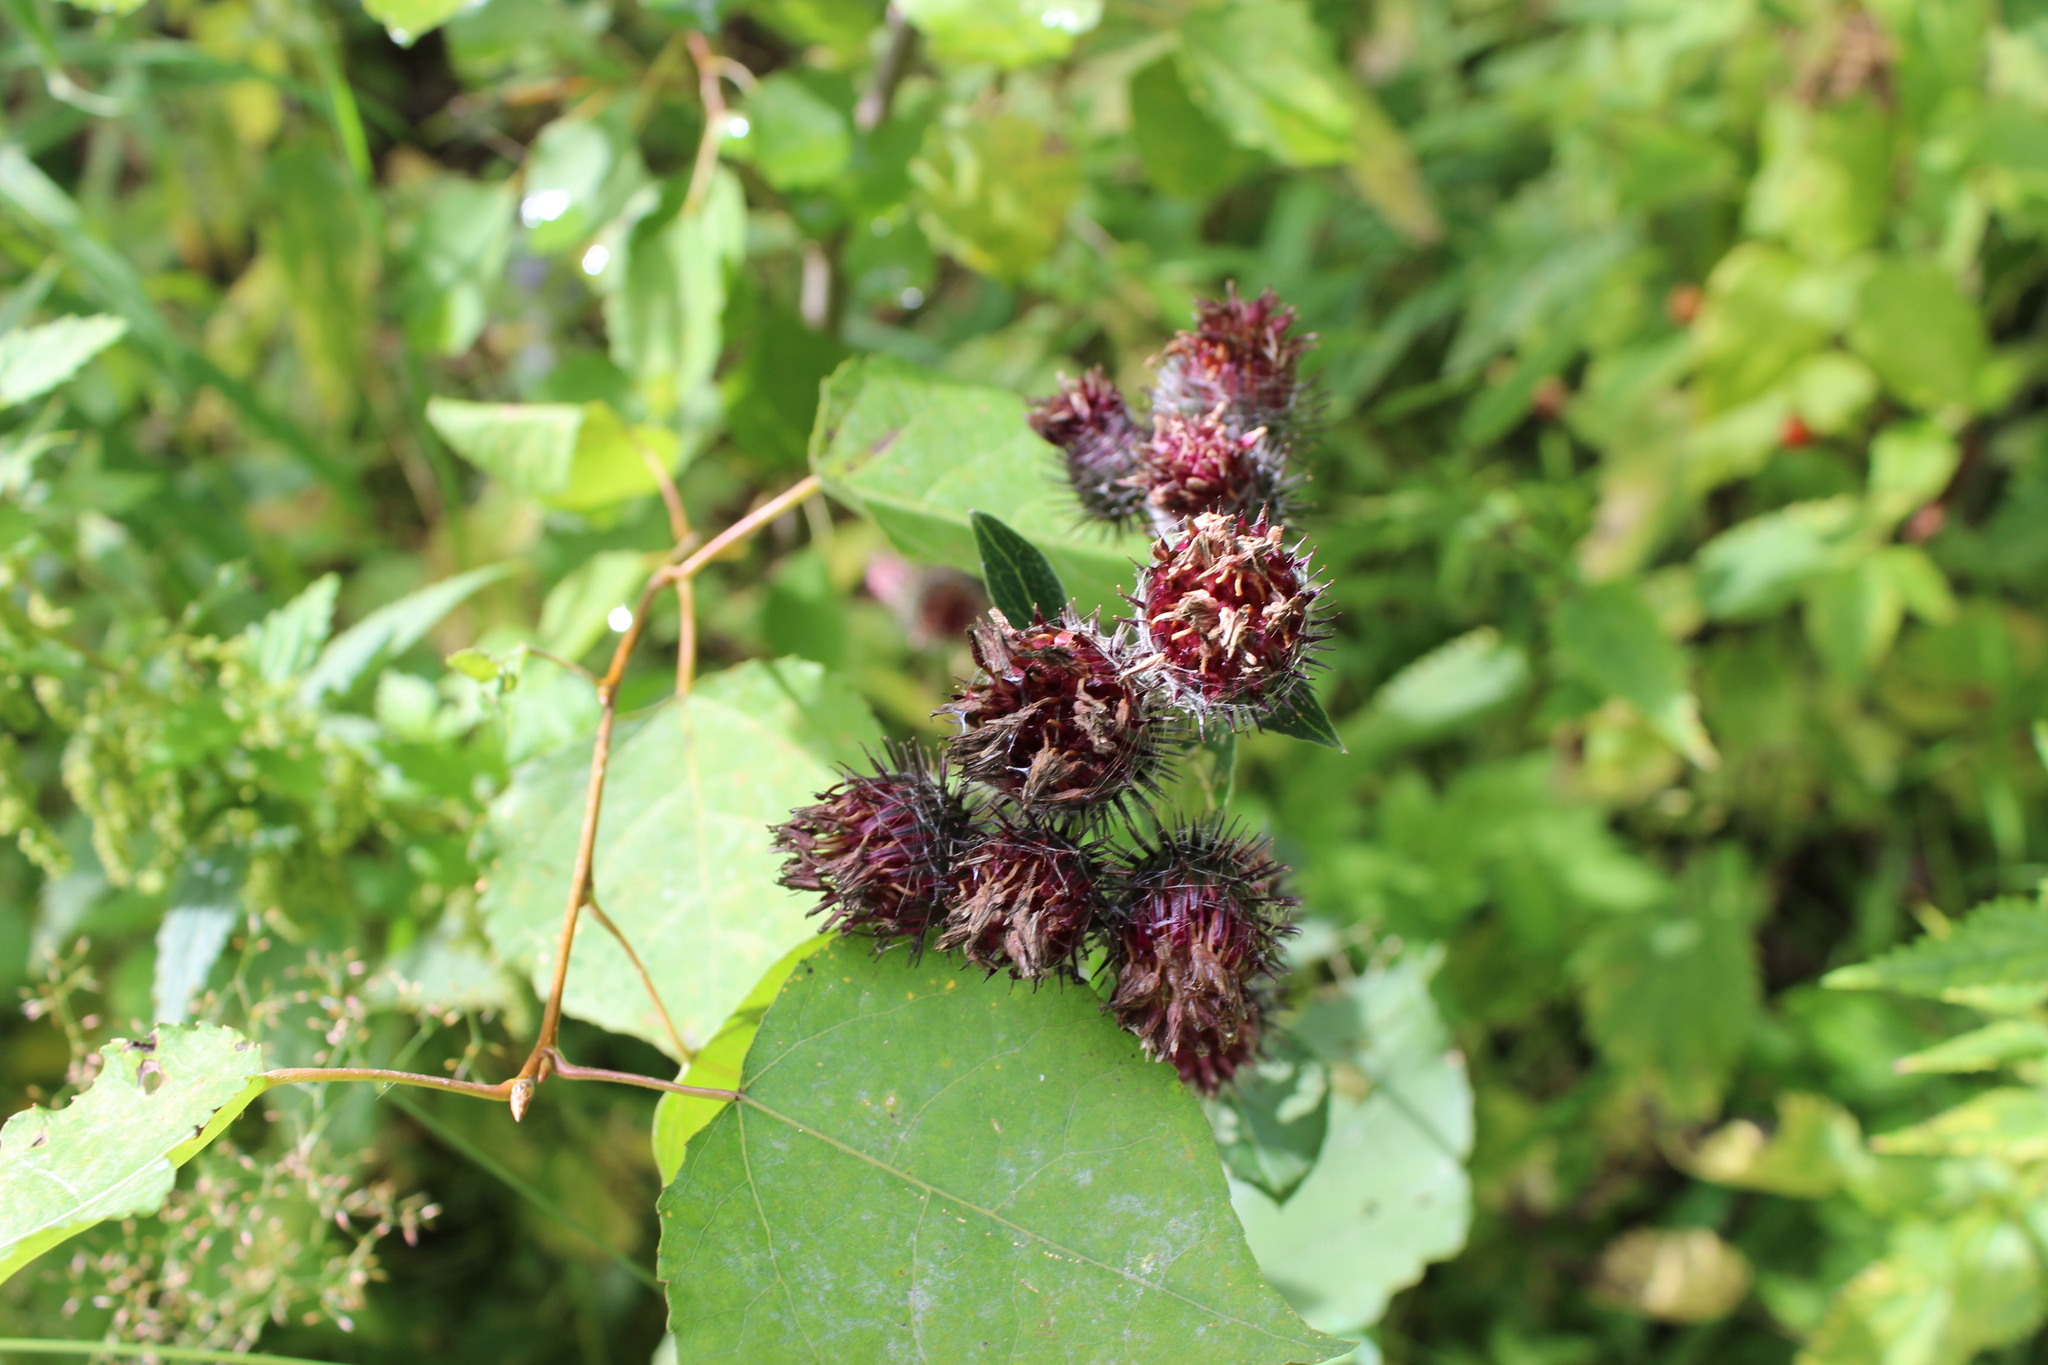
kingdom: Plantae
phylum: Tracheophyta
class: Magnoliopsida
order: Asterales
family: Asteraceae
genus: Arctium
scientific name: Arctium tomentosum
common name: Woolly burdock
